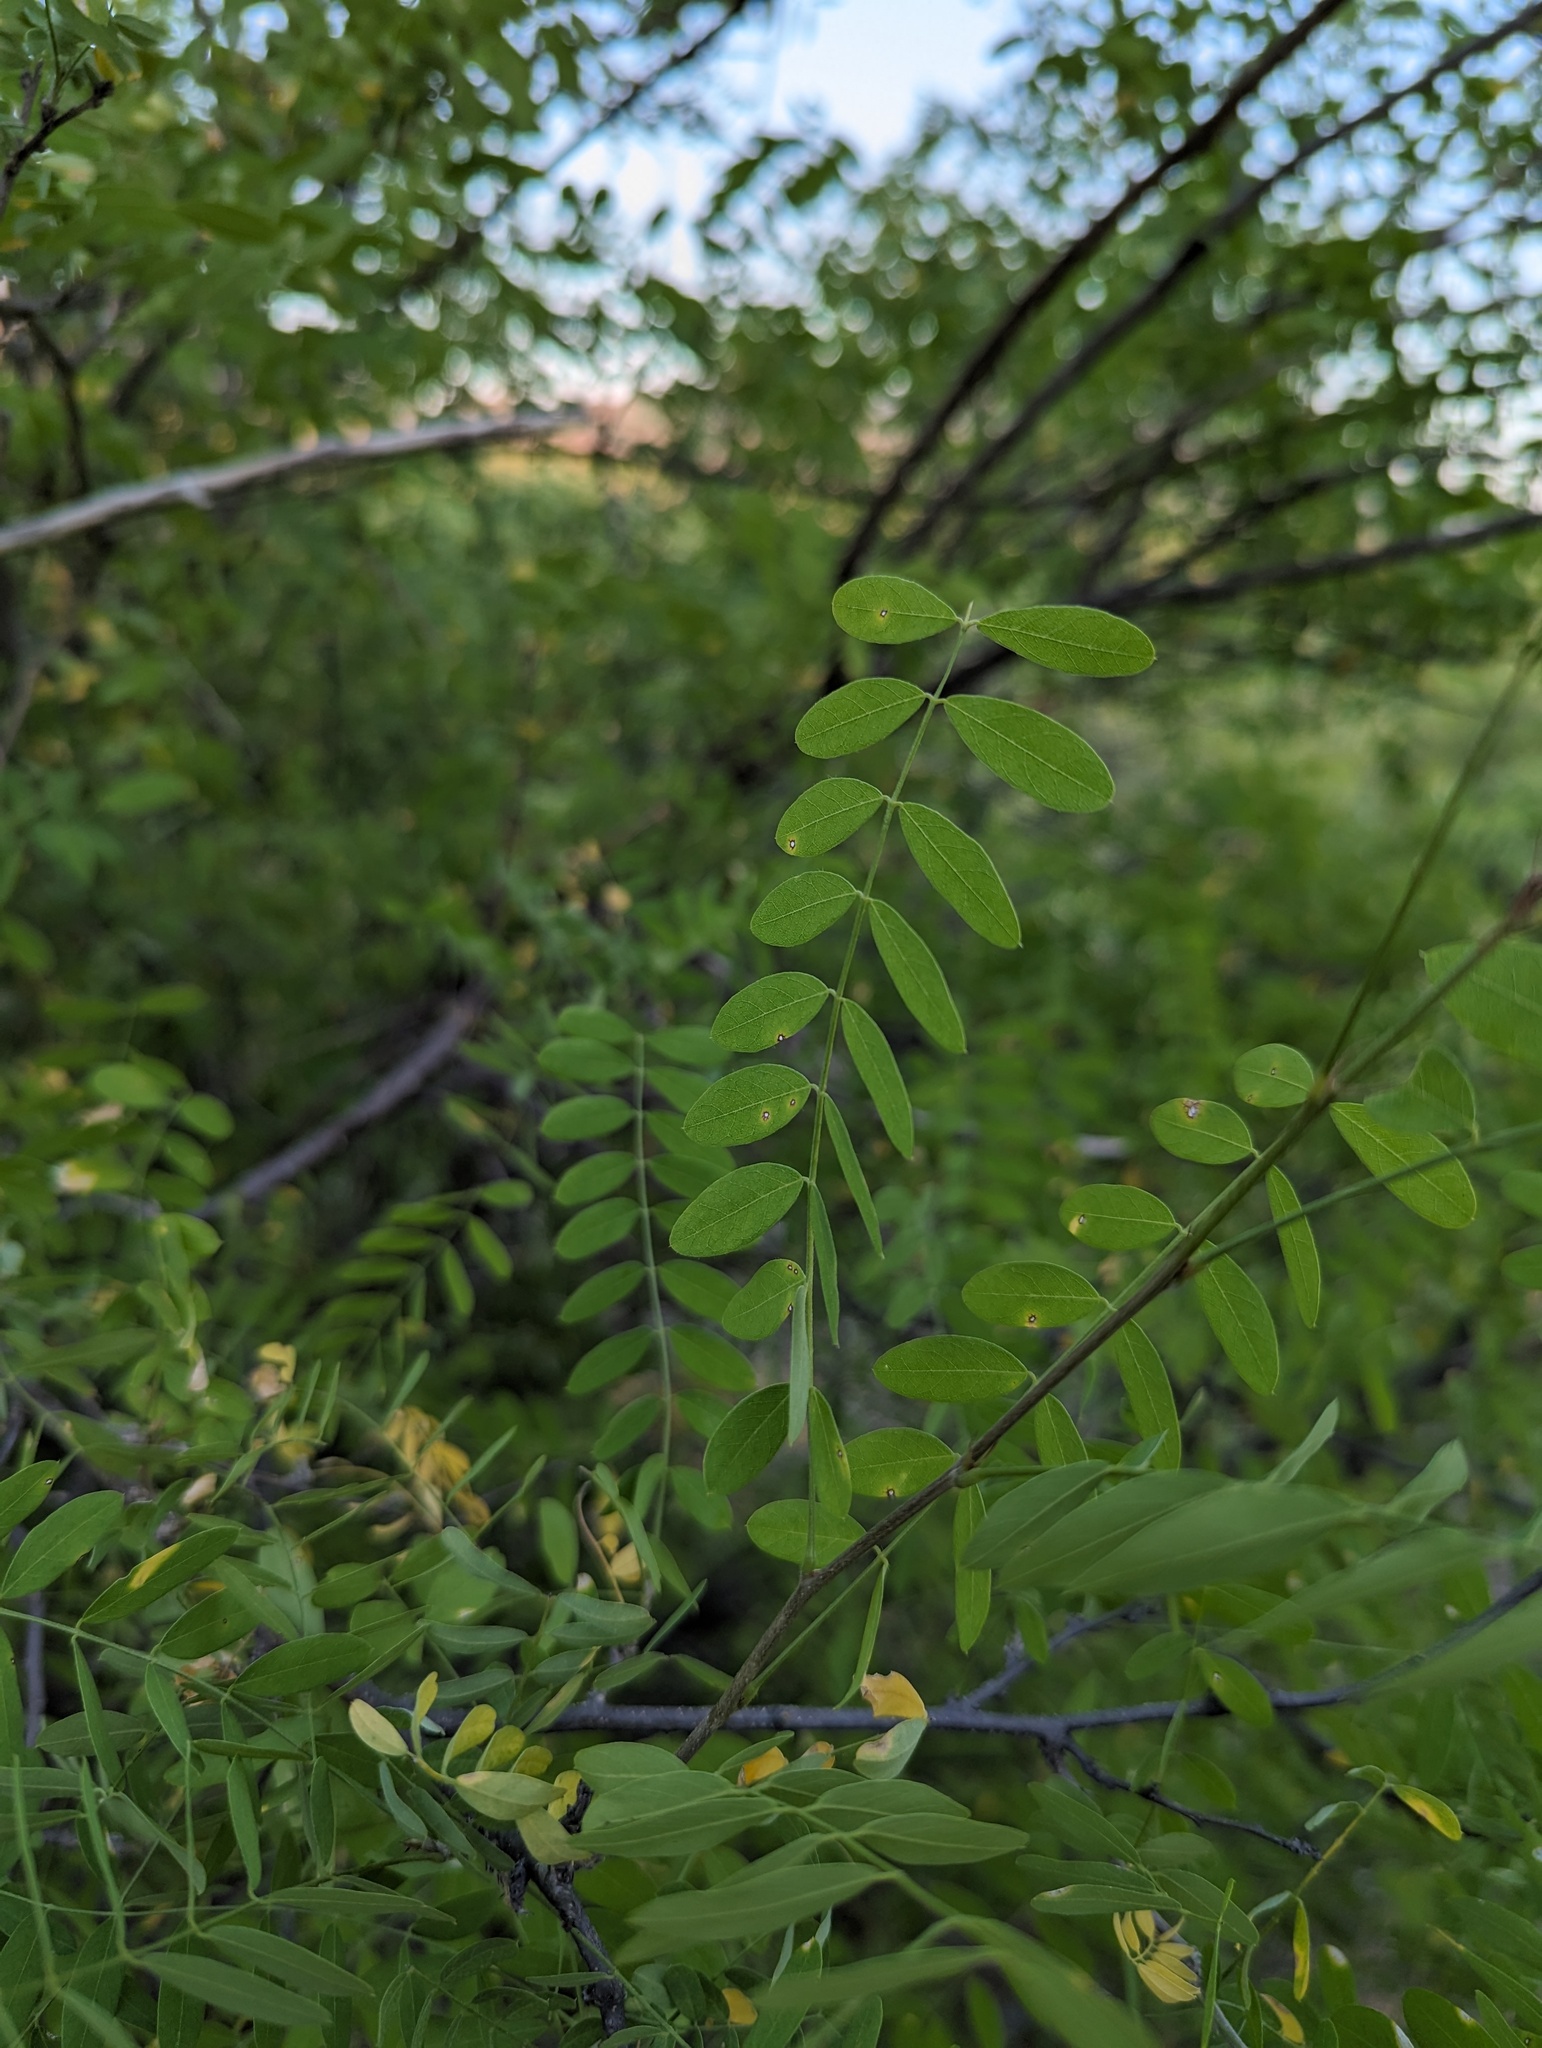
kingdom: Plantae
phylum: Tracheophyta
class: Magnoliopsida
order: Fabales
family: Fabaceae
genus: Coursetia
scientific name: Coursetia glandulosa
